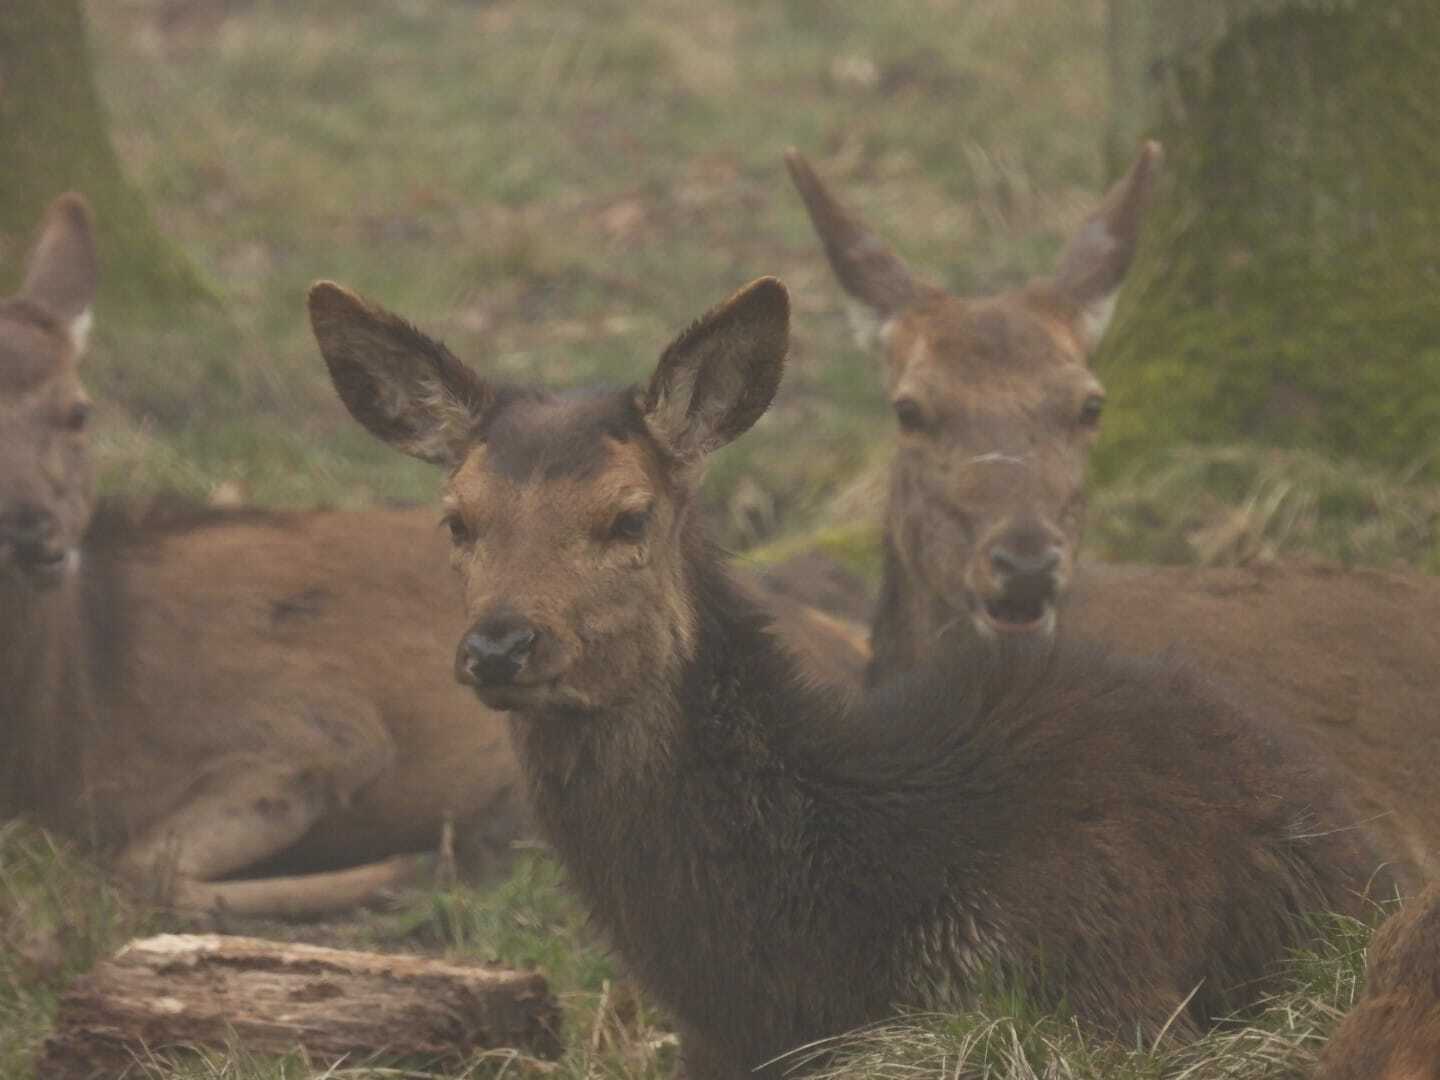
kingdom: Animalia
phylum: Chordata
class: Mammalia
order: Artiodactyla
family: Cervidae
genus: Cervus
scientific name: Cervus elaphus
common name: Red deer
